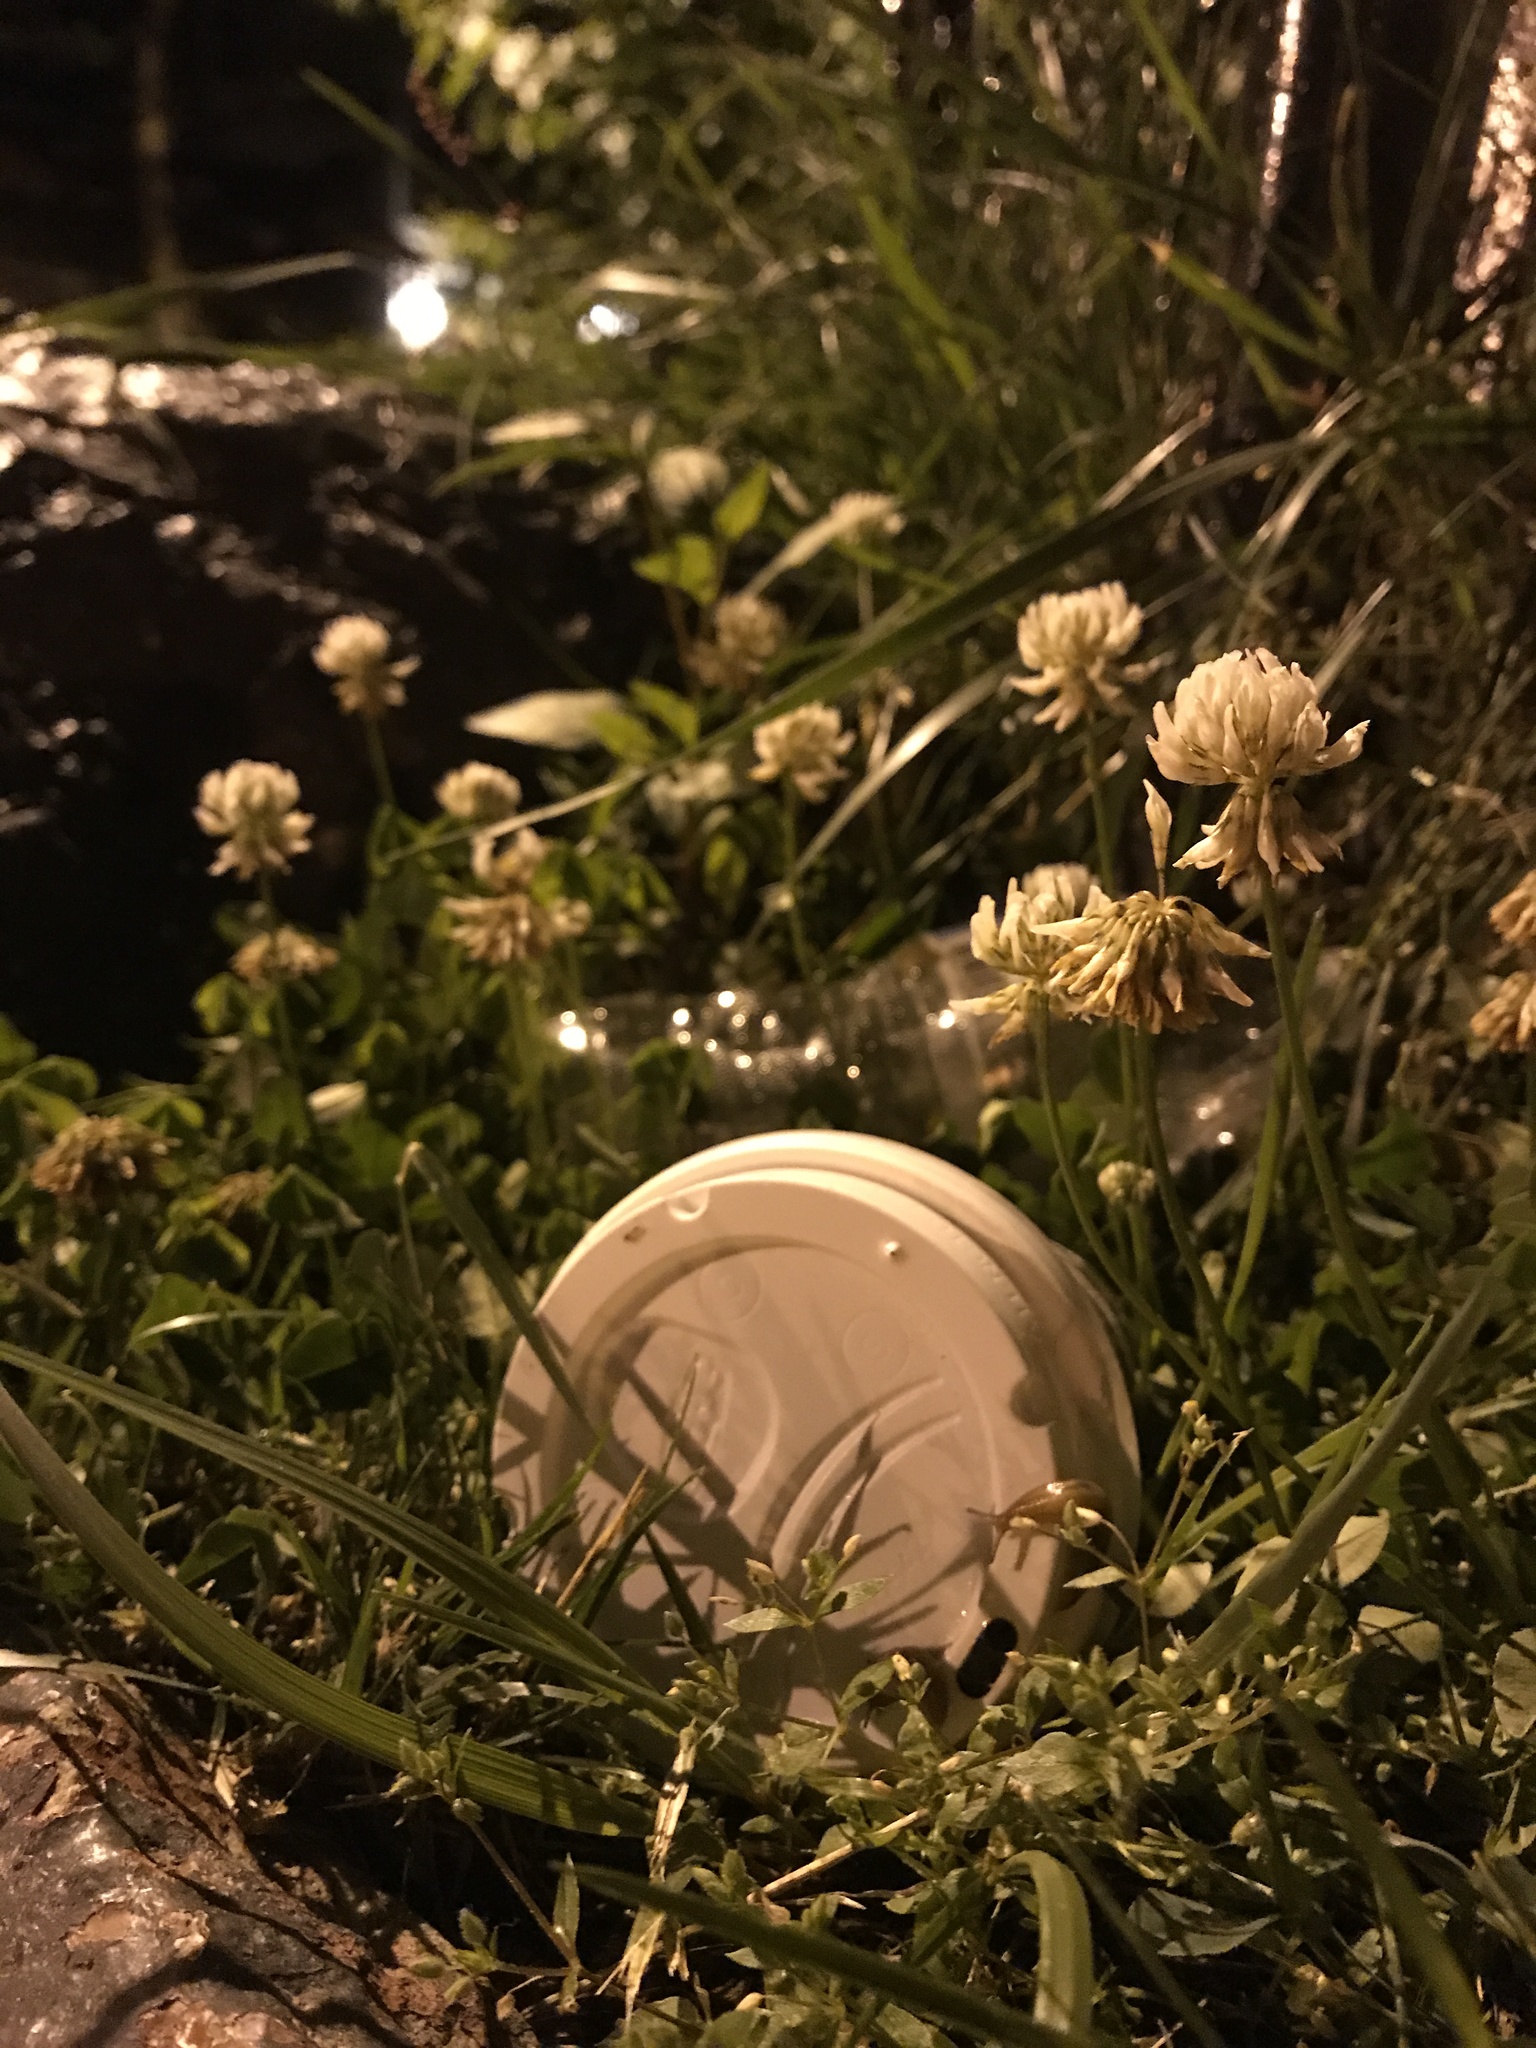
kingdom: Plantae
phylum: Tracheophyta
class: Magnoliopsida
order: Fabales
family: Fabaceae
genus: Trifolium
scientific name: Trifolium repens
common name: White clover
